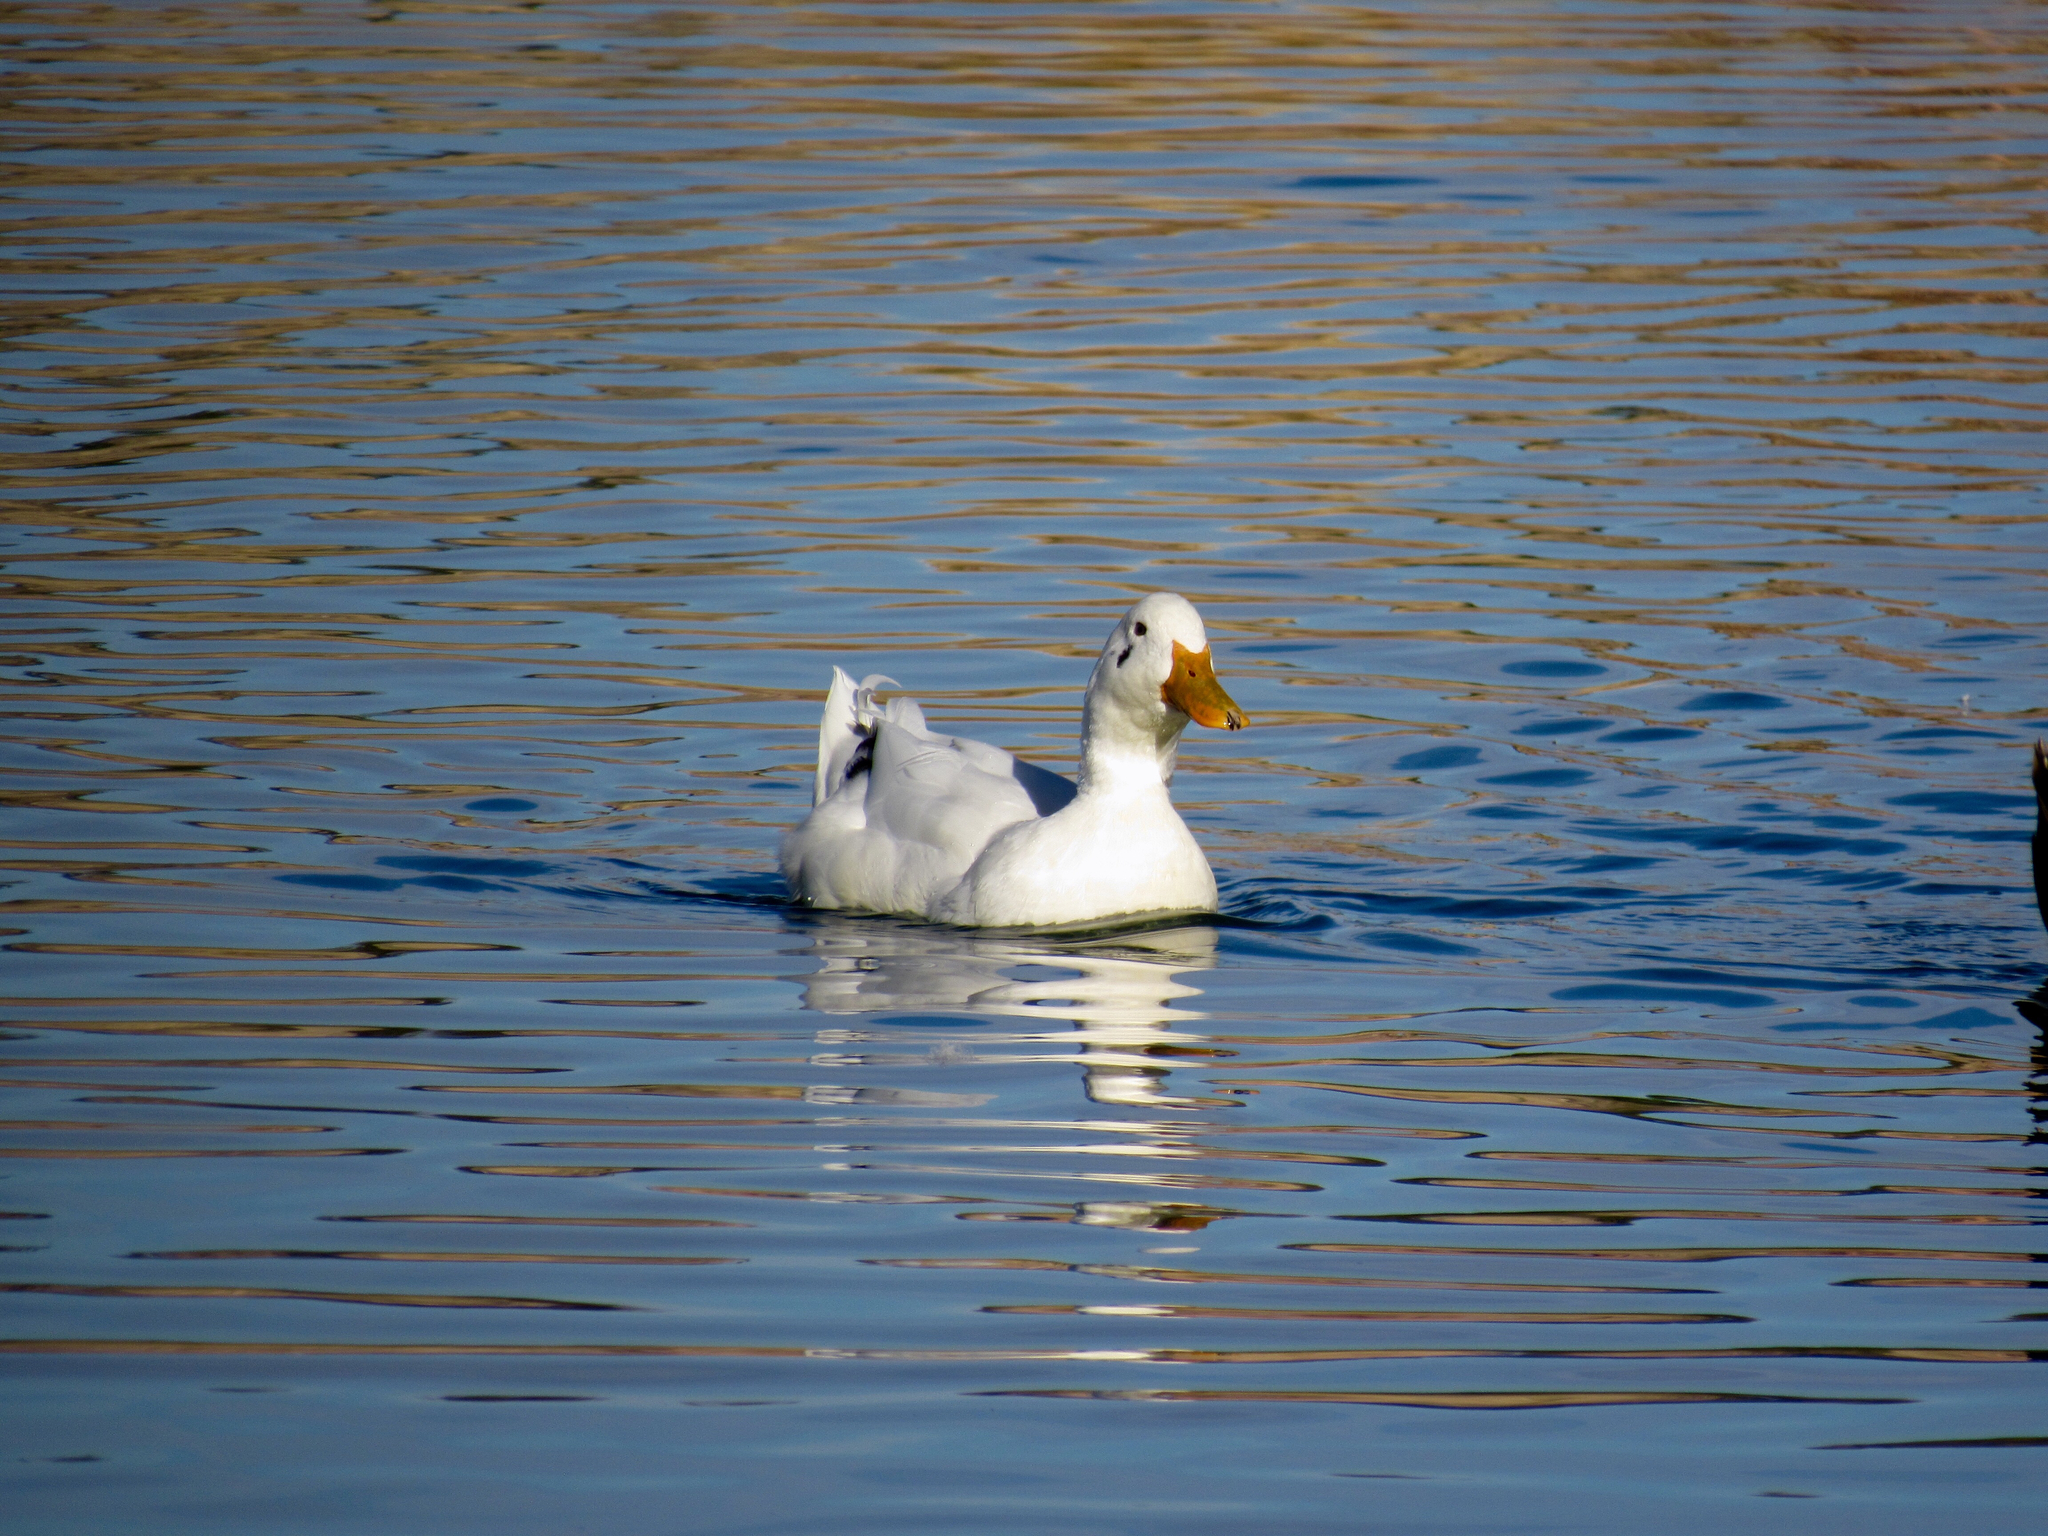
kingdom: Animalia
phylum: Chordata
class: Aves
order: Anseriformes
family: Anatidae
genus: Anas
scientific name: Anas platyrhynchos
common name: Mallard
